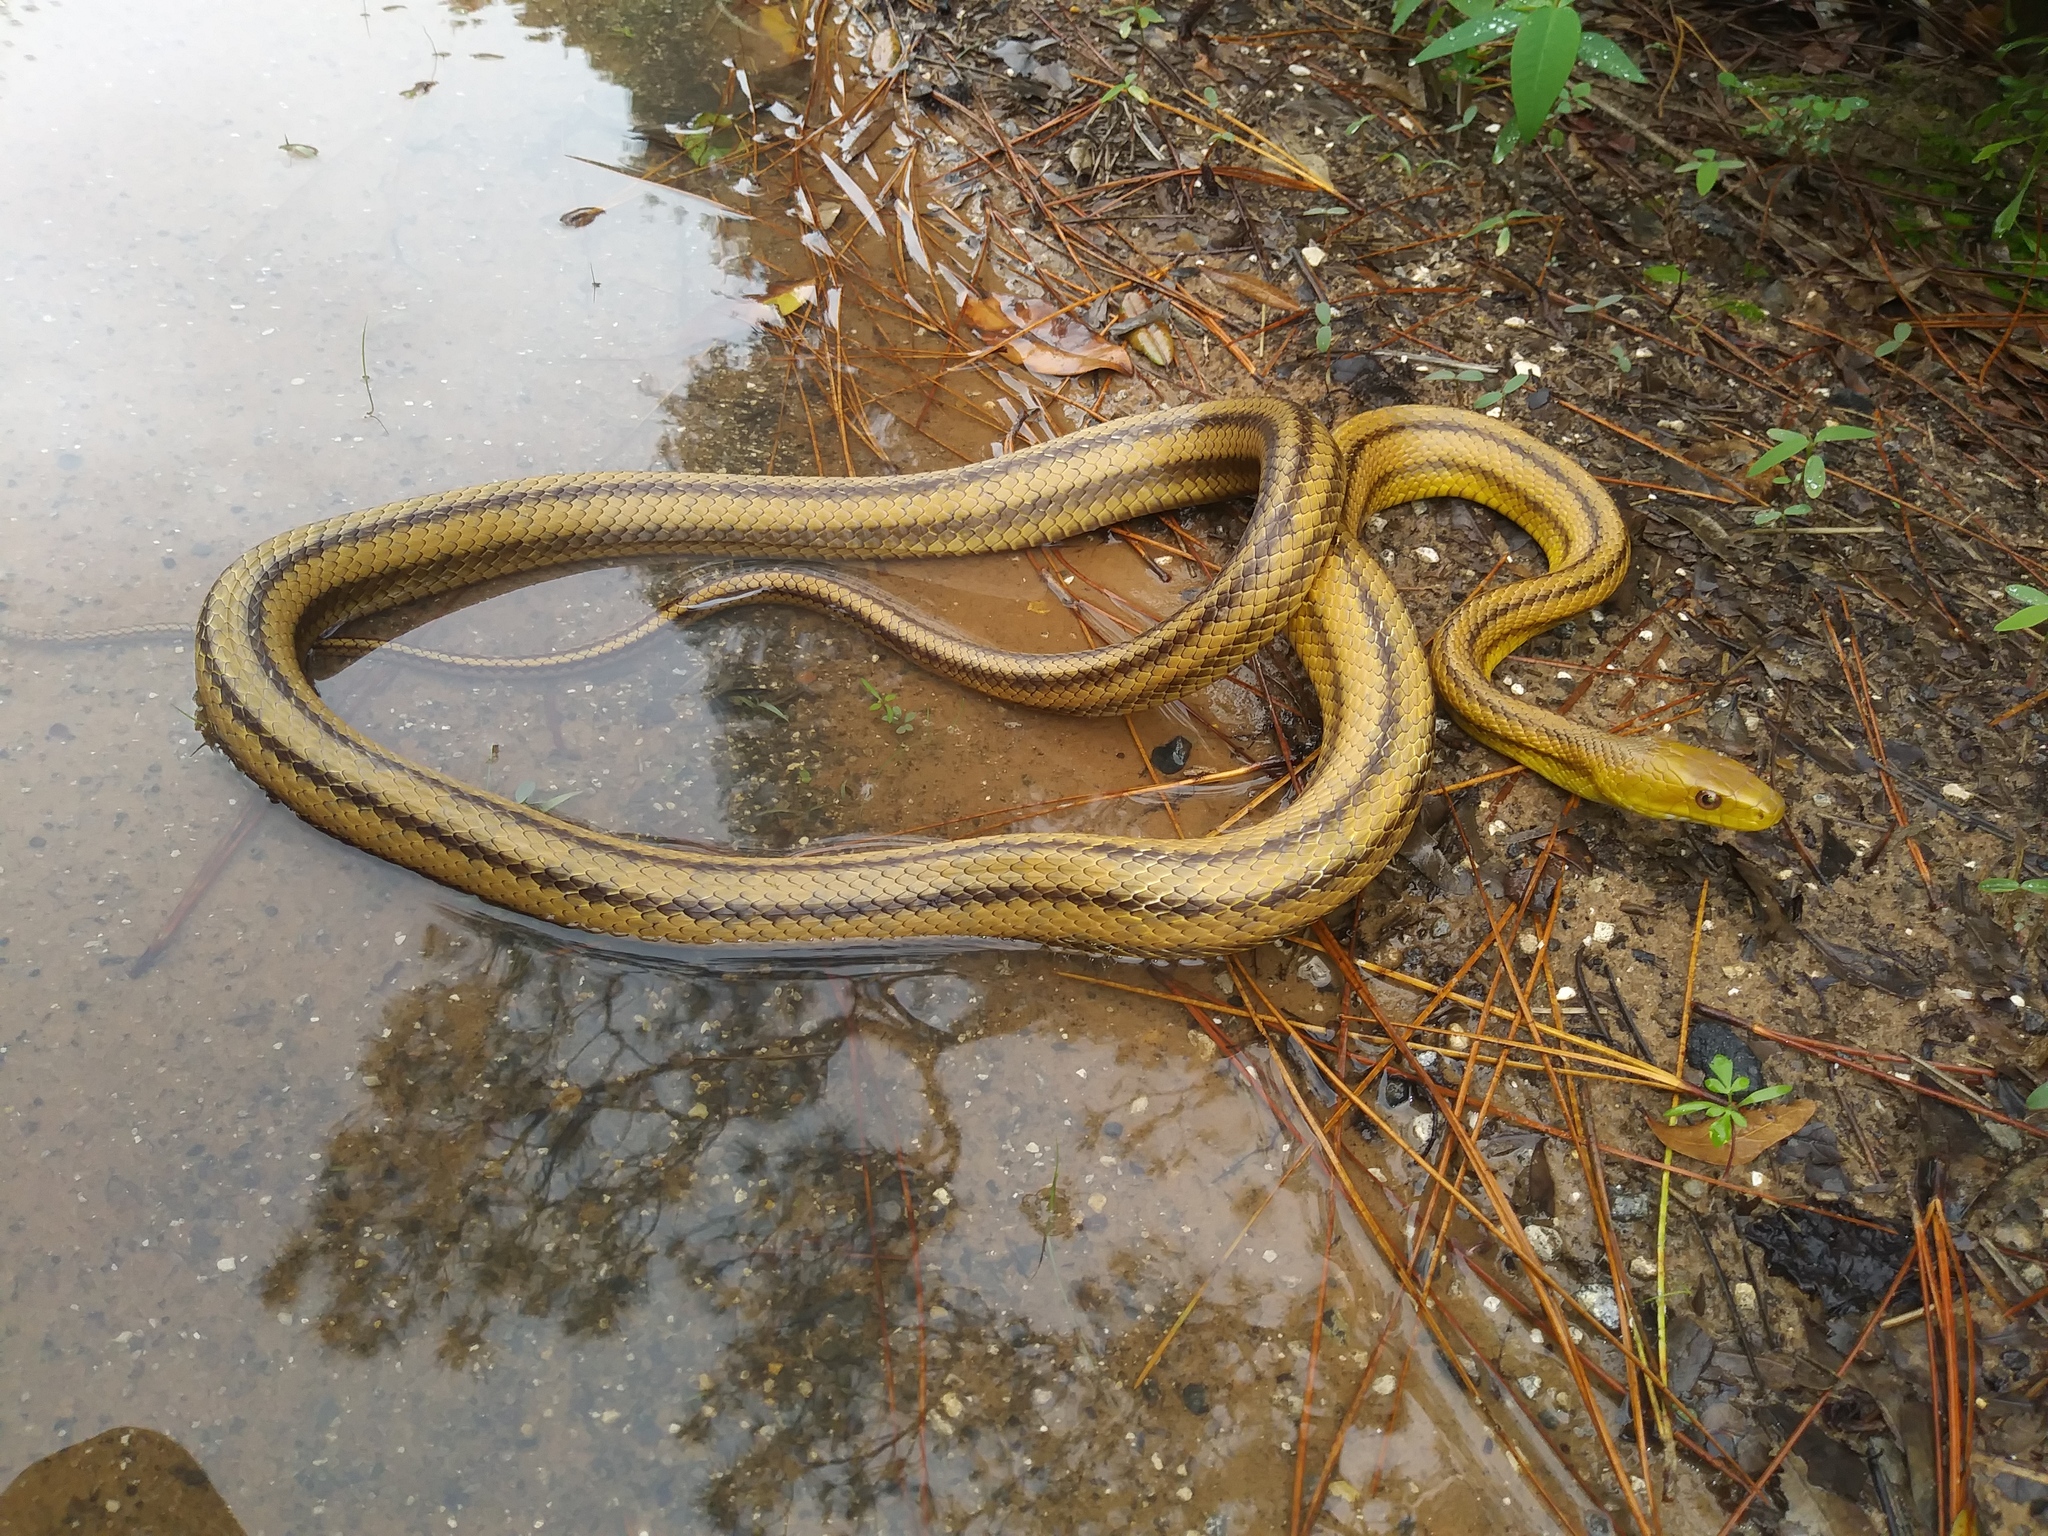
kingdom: Animalia
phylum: Chordata
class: Squamata
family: Colubridae
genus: Pantherophis
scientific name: Pantherophis alleghaniensis
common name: Eastern rat snake
